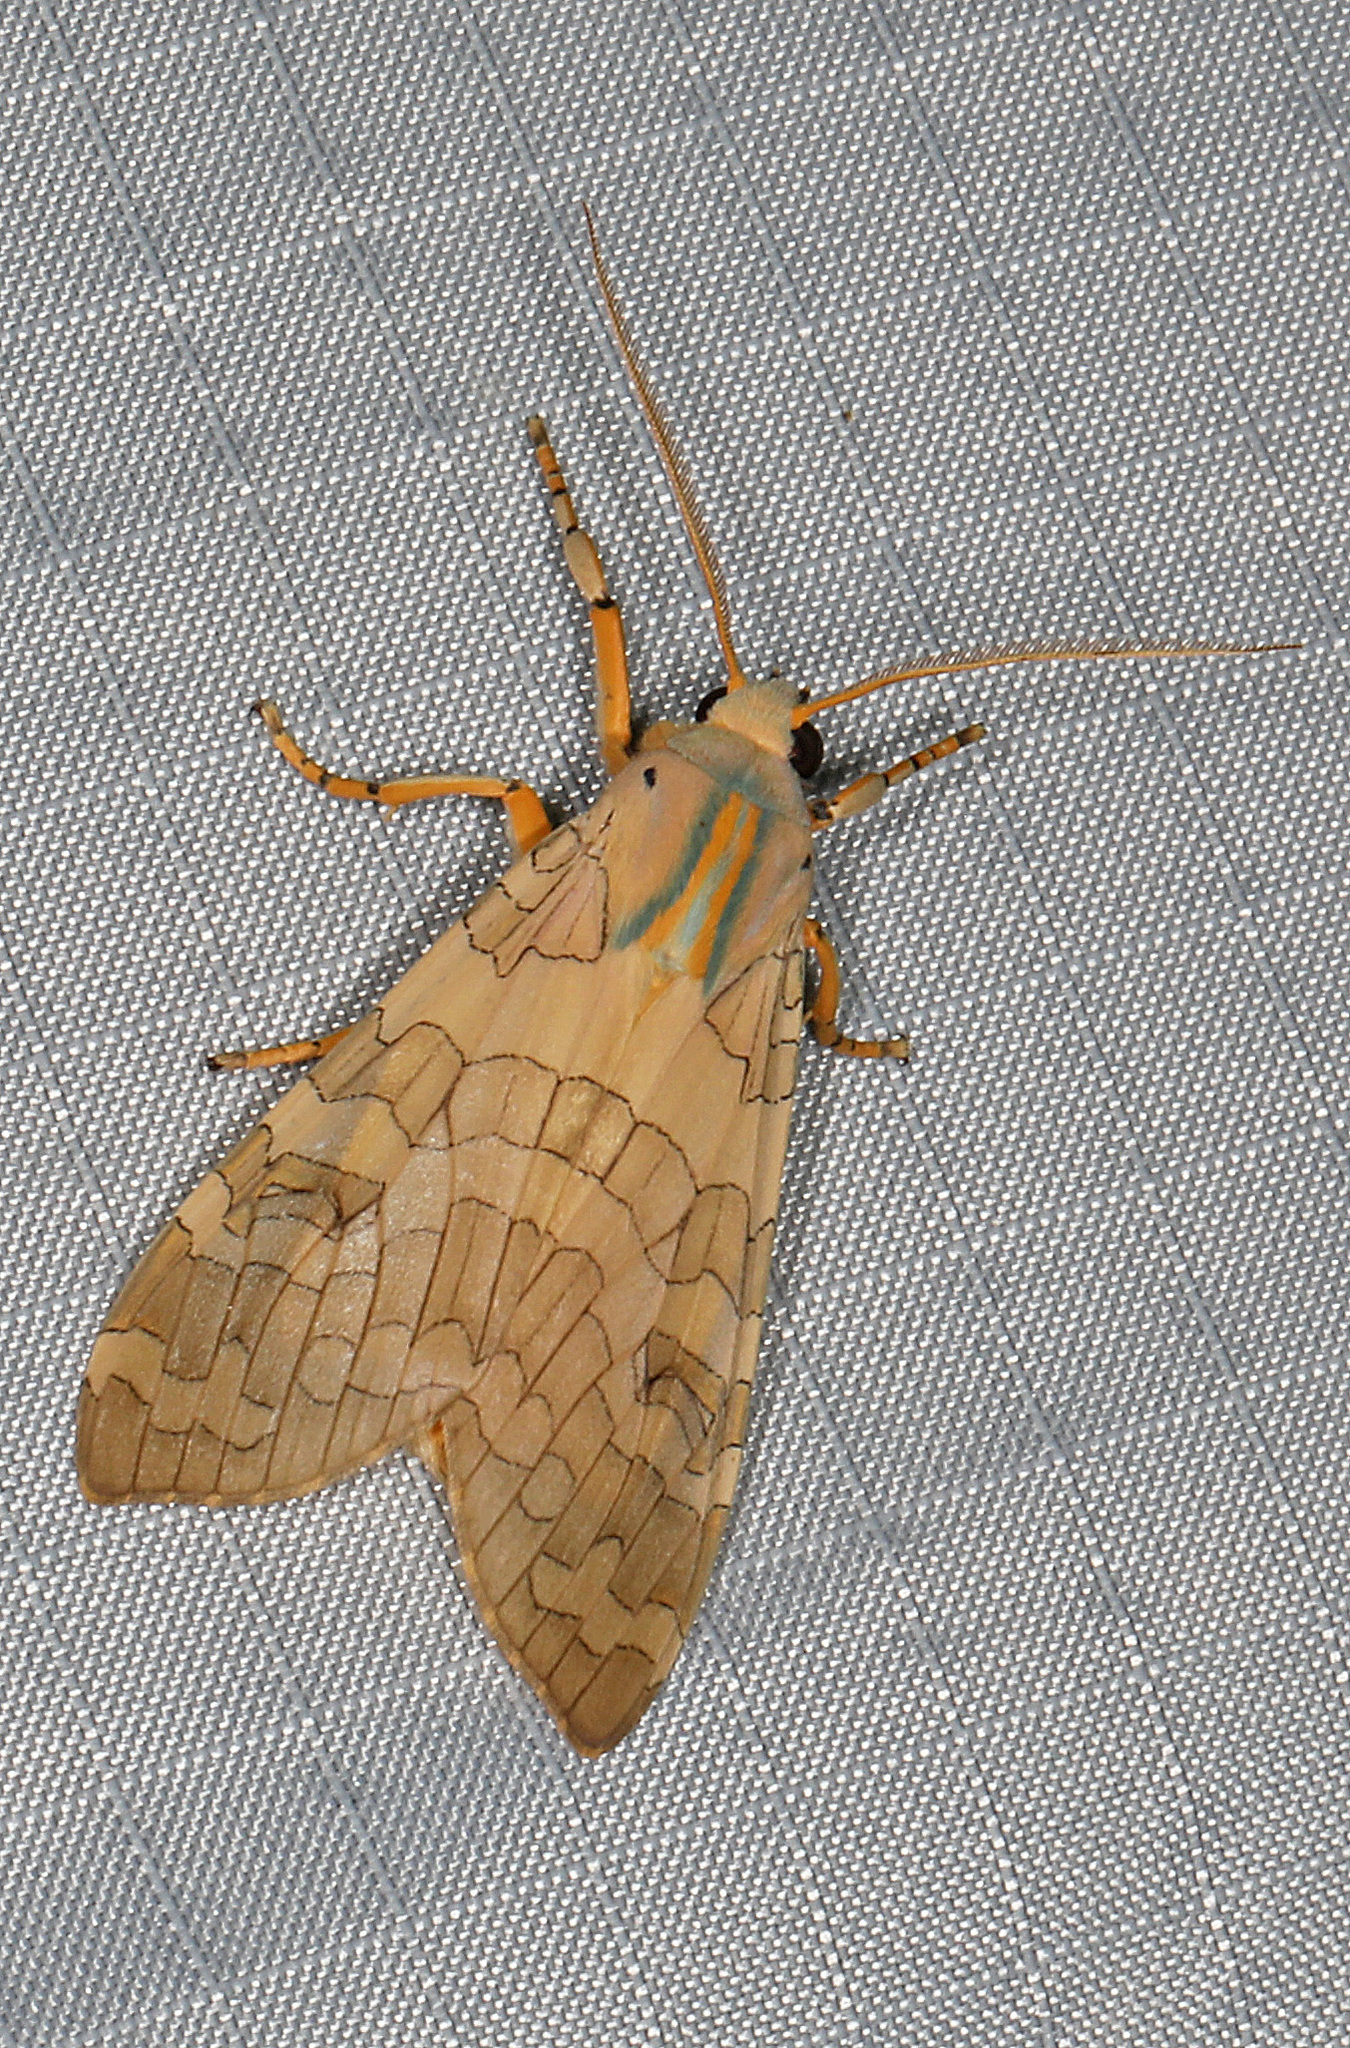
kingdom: Animalia
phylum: Arthropoda
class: Insecta
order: Lepidoptera
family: Erebidae
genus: Halysidota
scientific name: Halysidota
